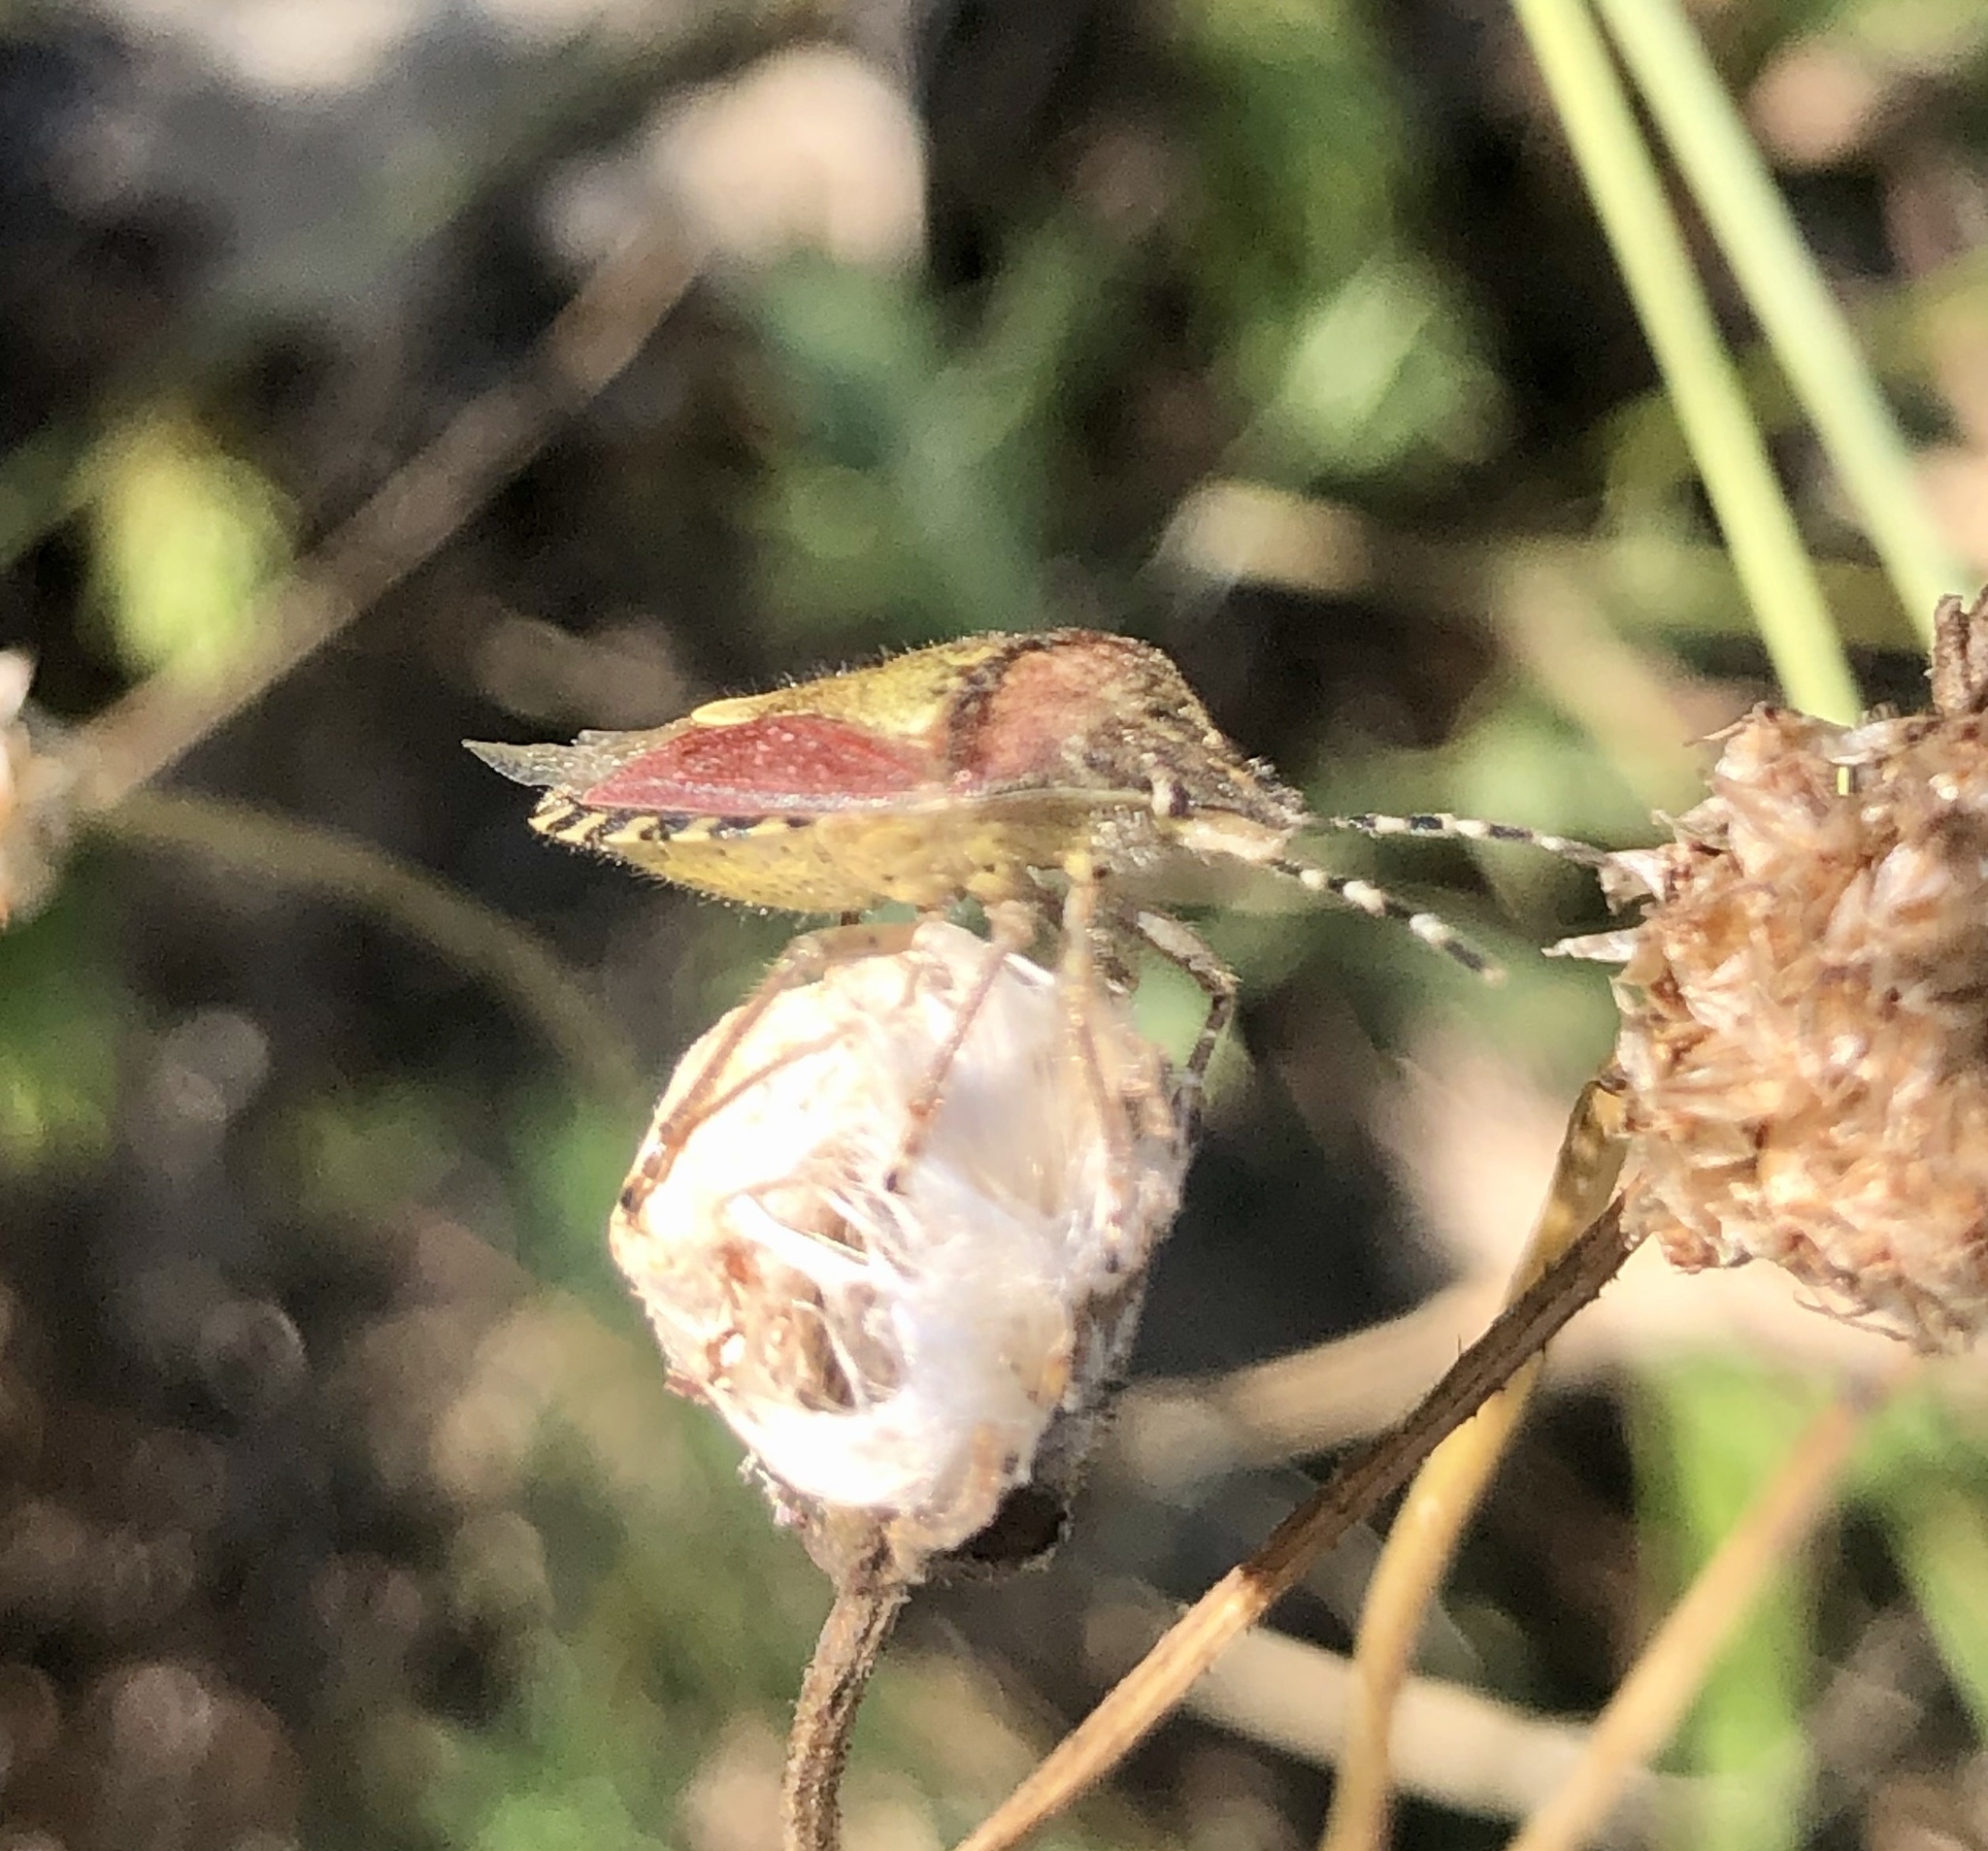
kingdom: Animalia
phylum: Arthropoda
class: Insecta
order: Hemiptera
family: Pentatomidae
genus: Dolycoris
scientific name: Dolycoris baccarum
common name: Sloe bug
